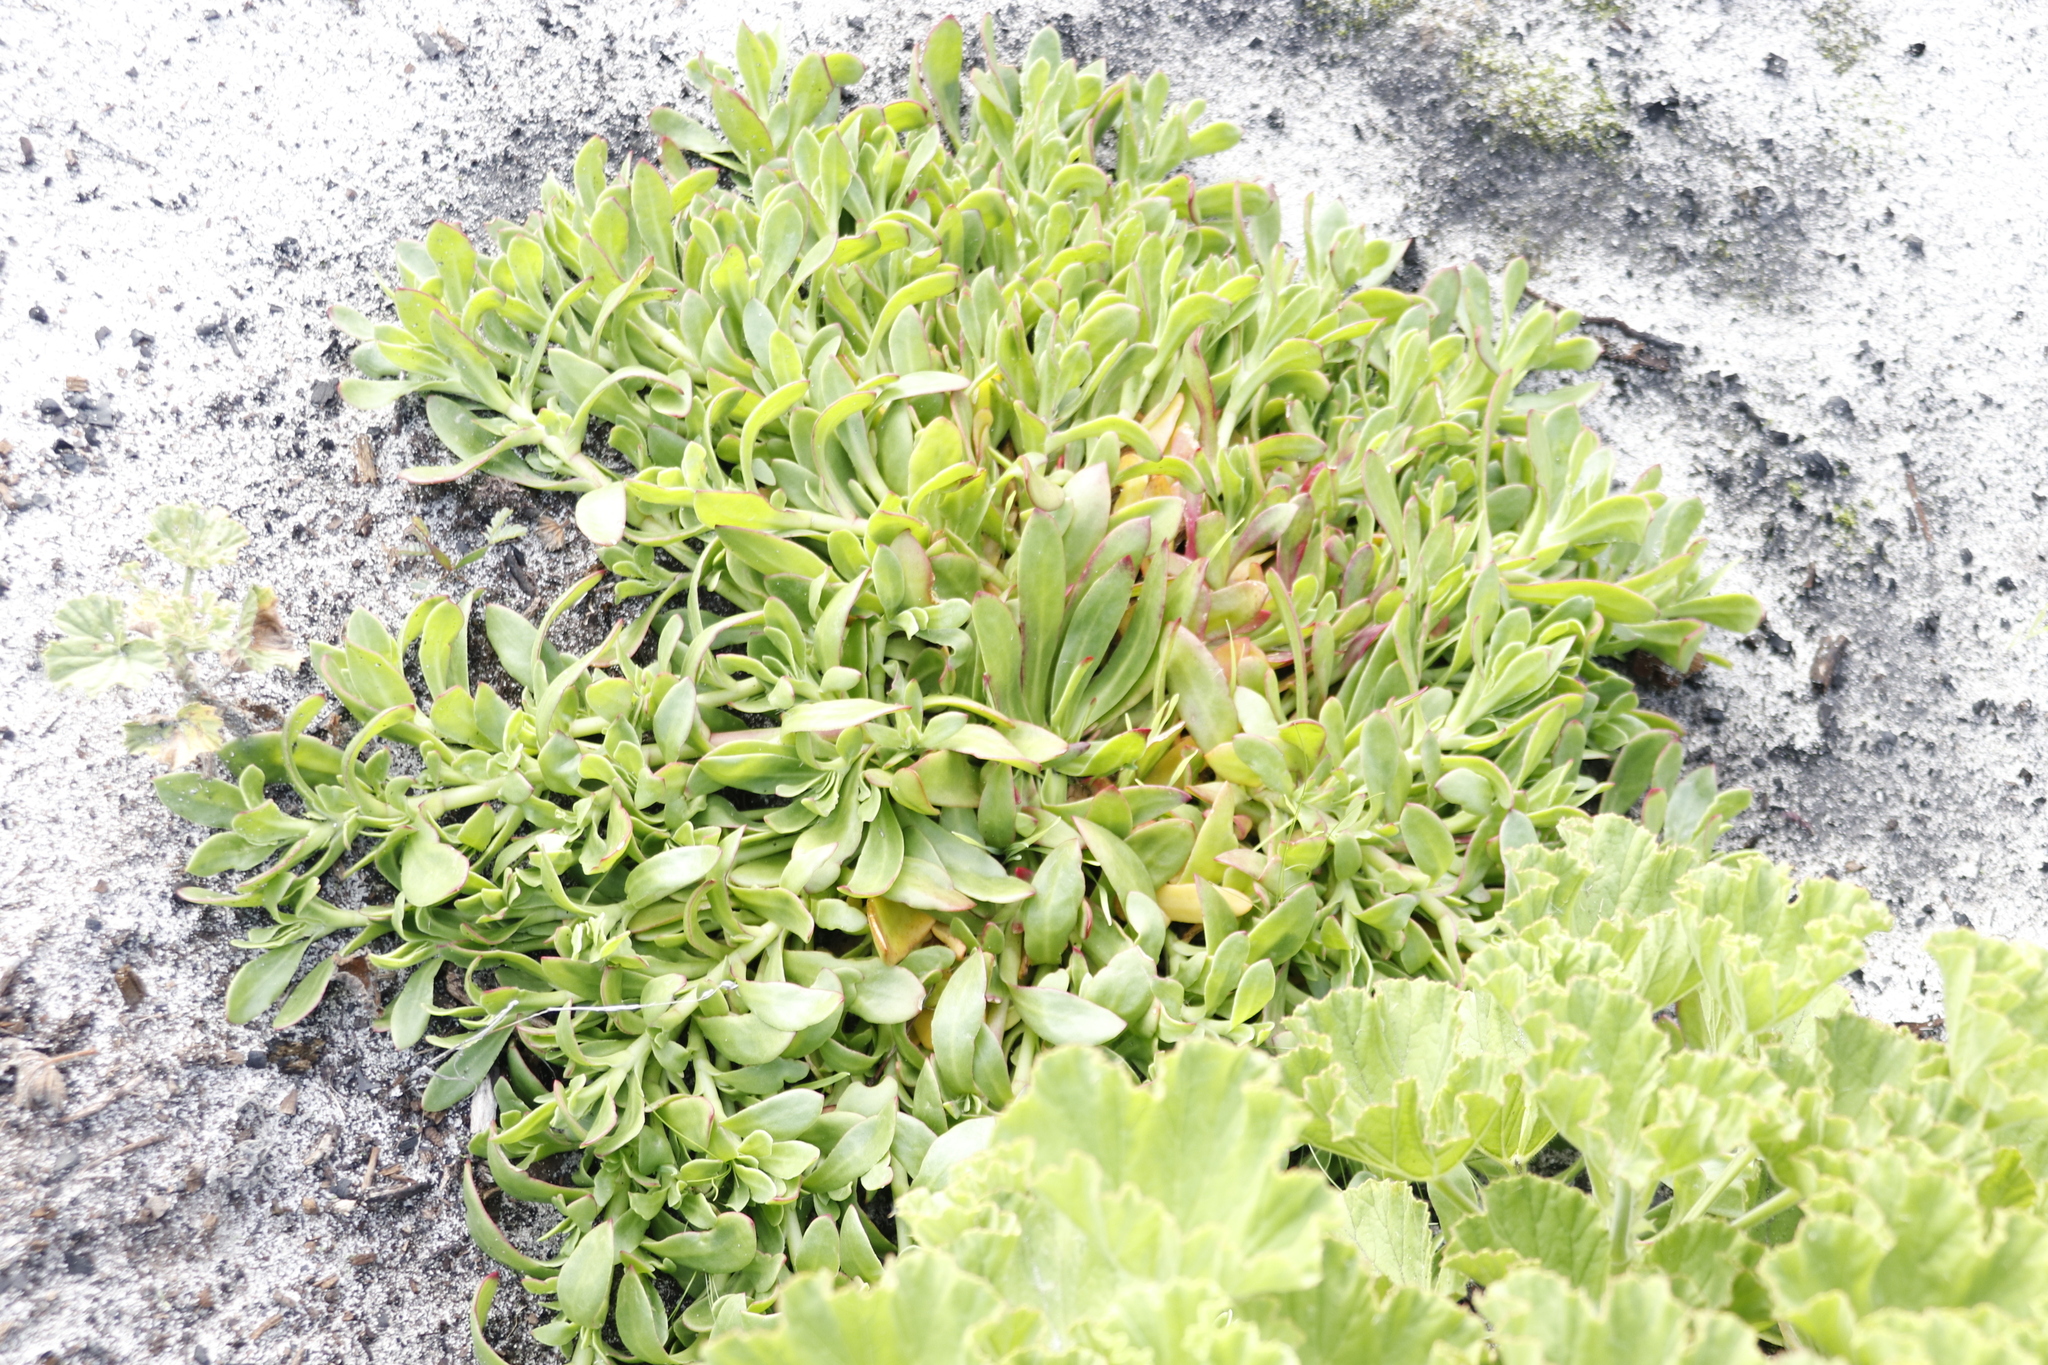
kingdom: Plantae
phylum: Tracheophyta
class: Magnoliopsida
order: Caryophyllales
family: Aizoaceae
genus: Skiatophytum
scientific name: Skiatophytum tripolium
